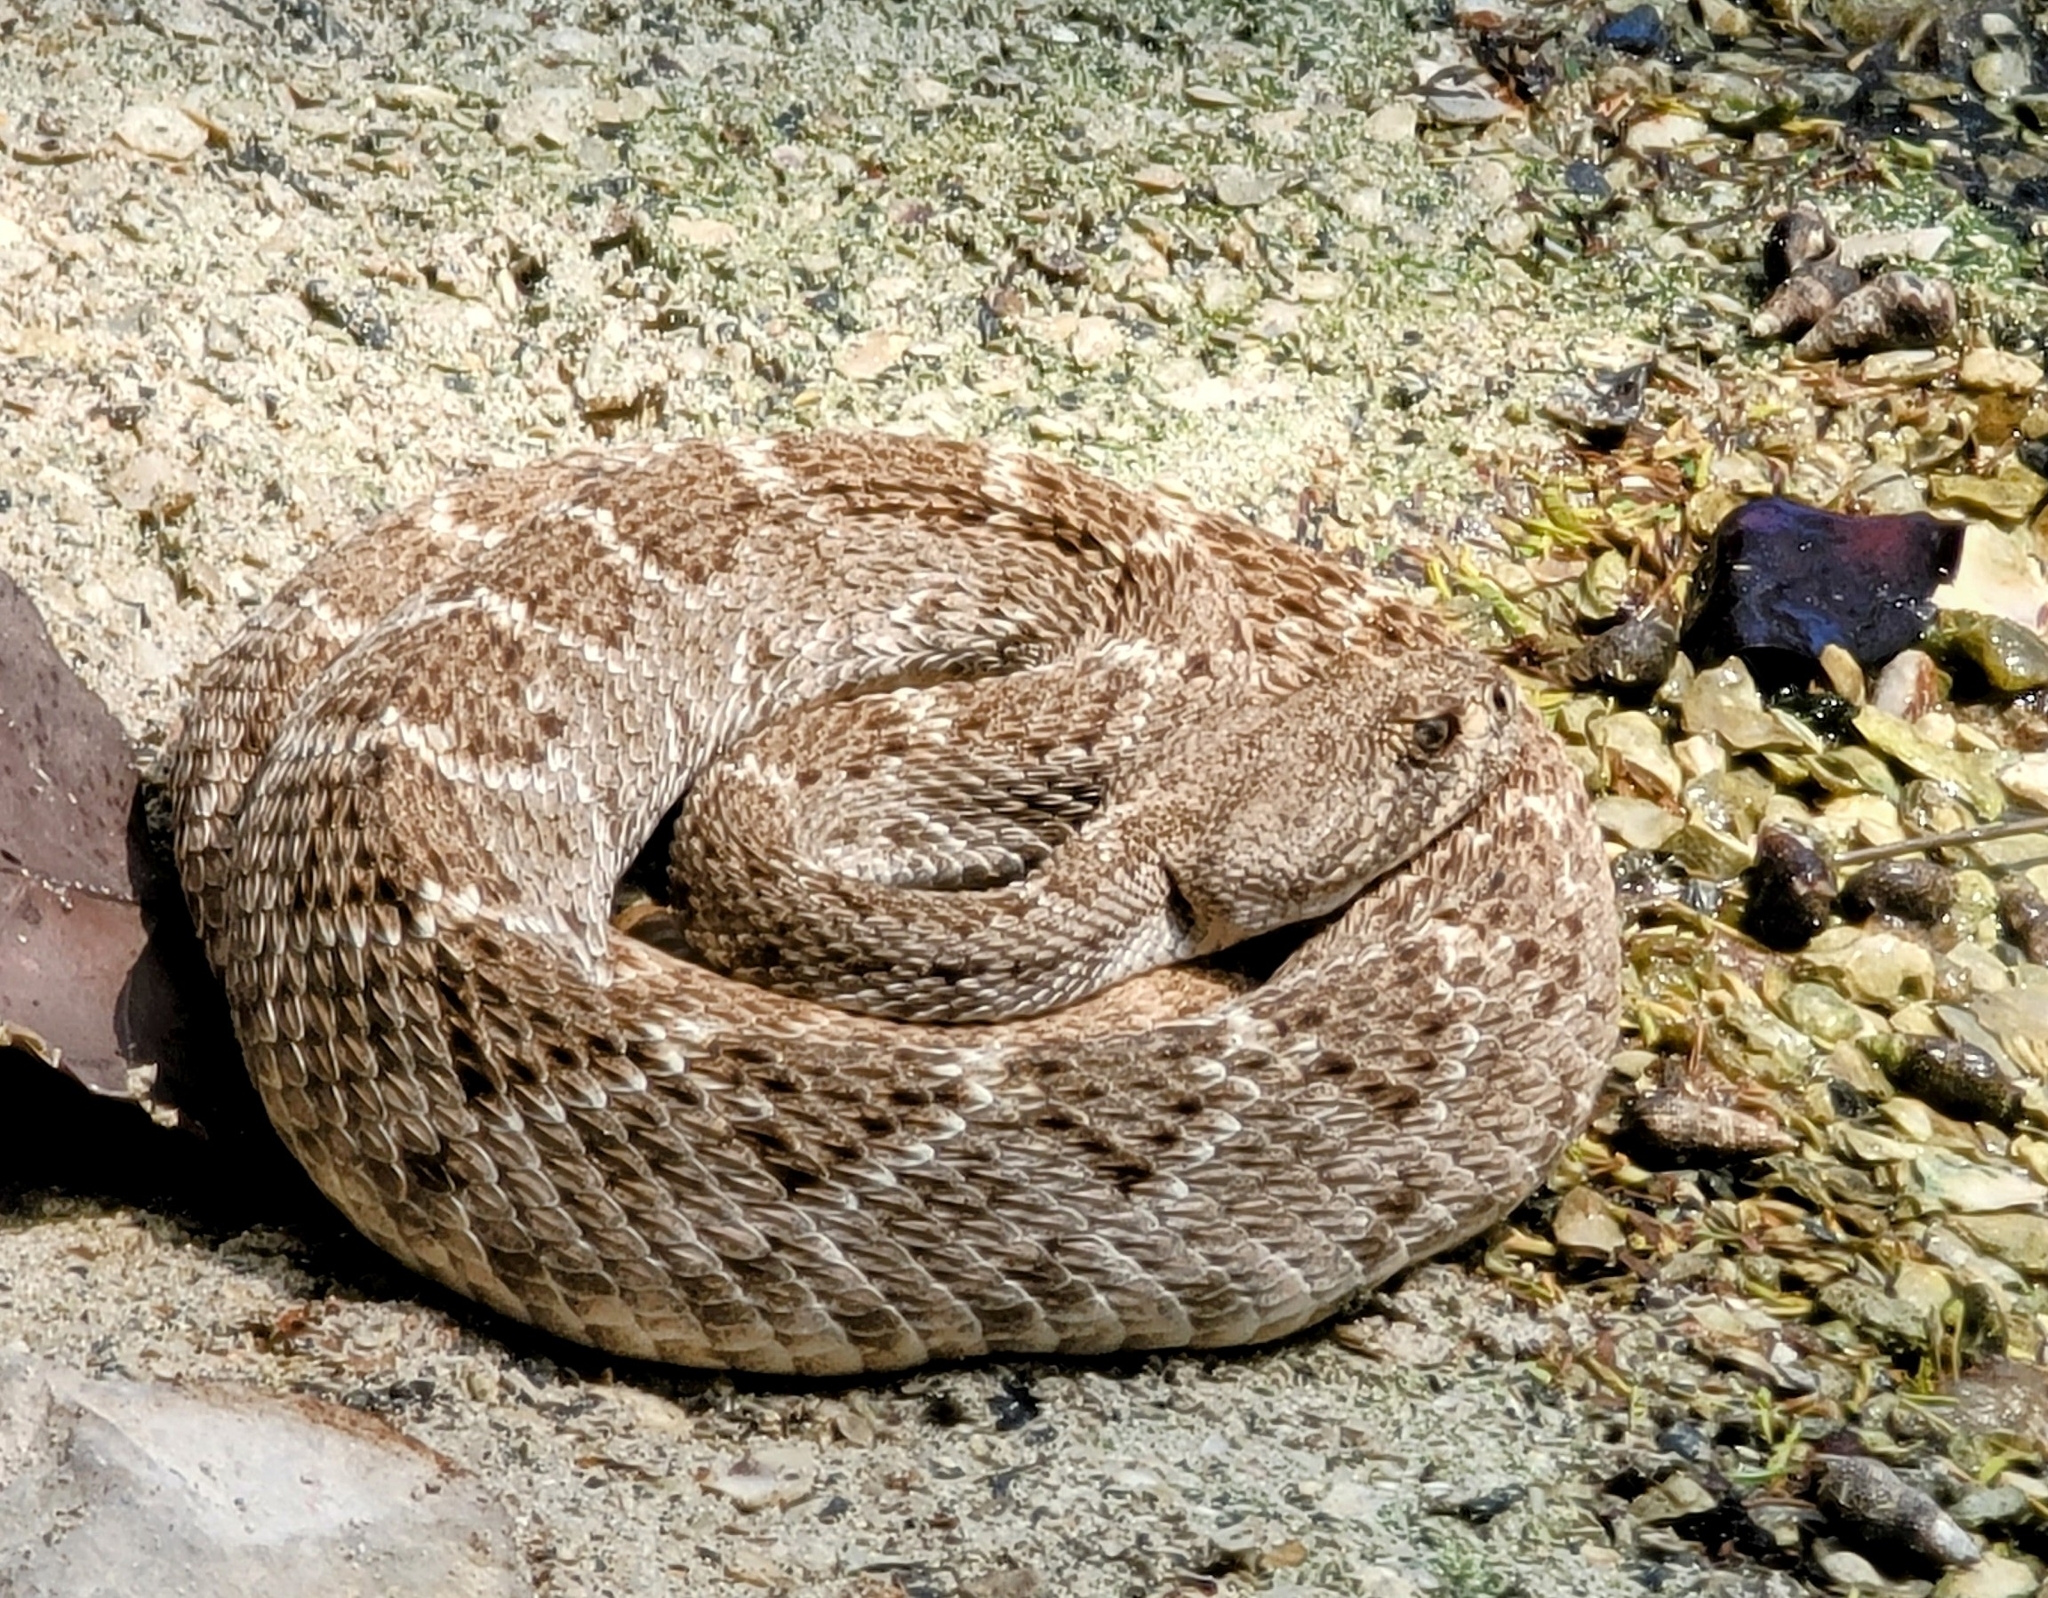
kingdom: Animalia
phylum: Chordata
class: Squamata
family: Viperidae
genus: Crotalus
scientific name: Crotalus atrox
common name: Western diamond-backed rattlesnake
